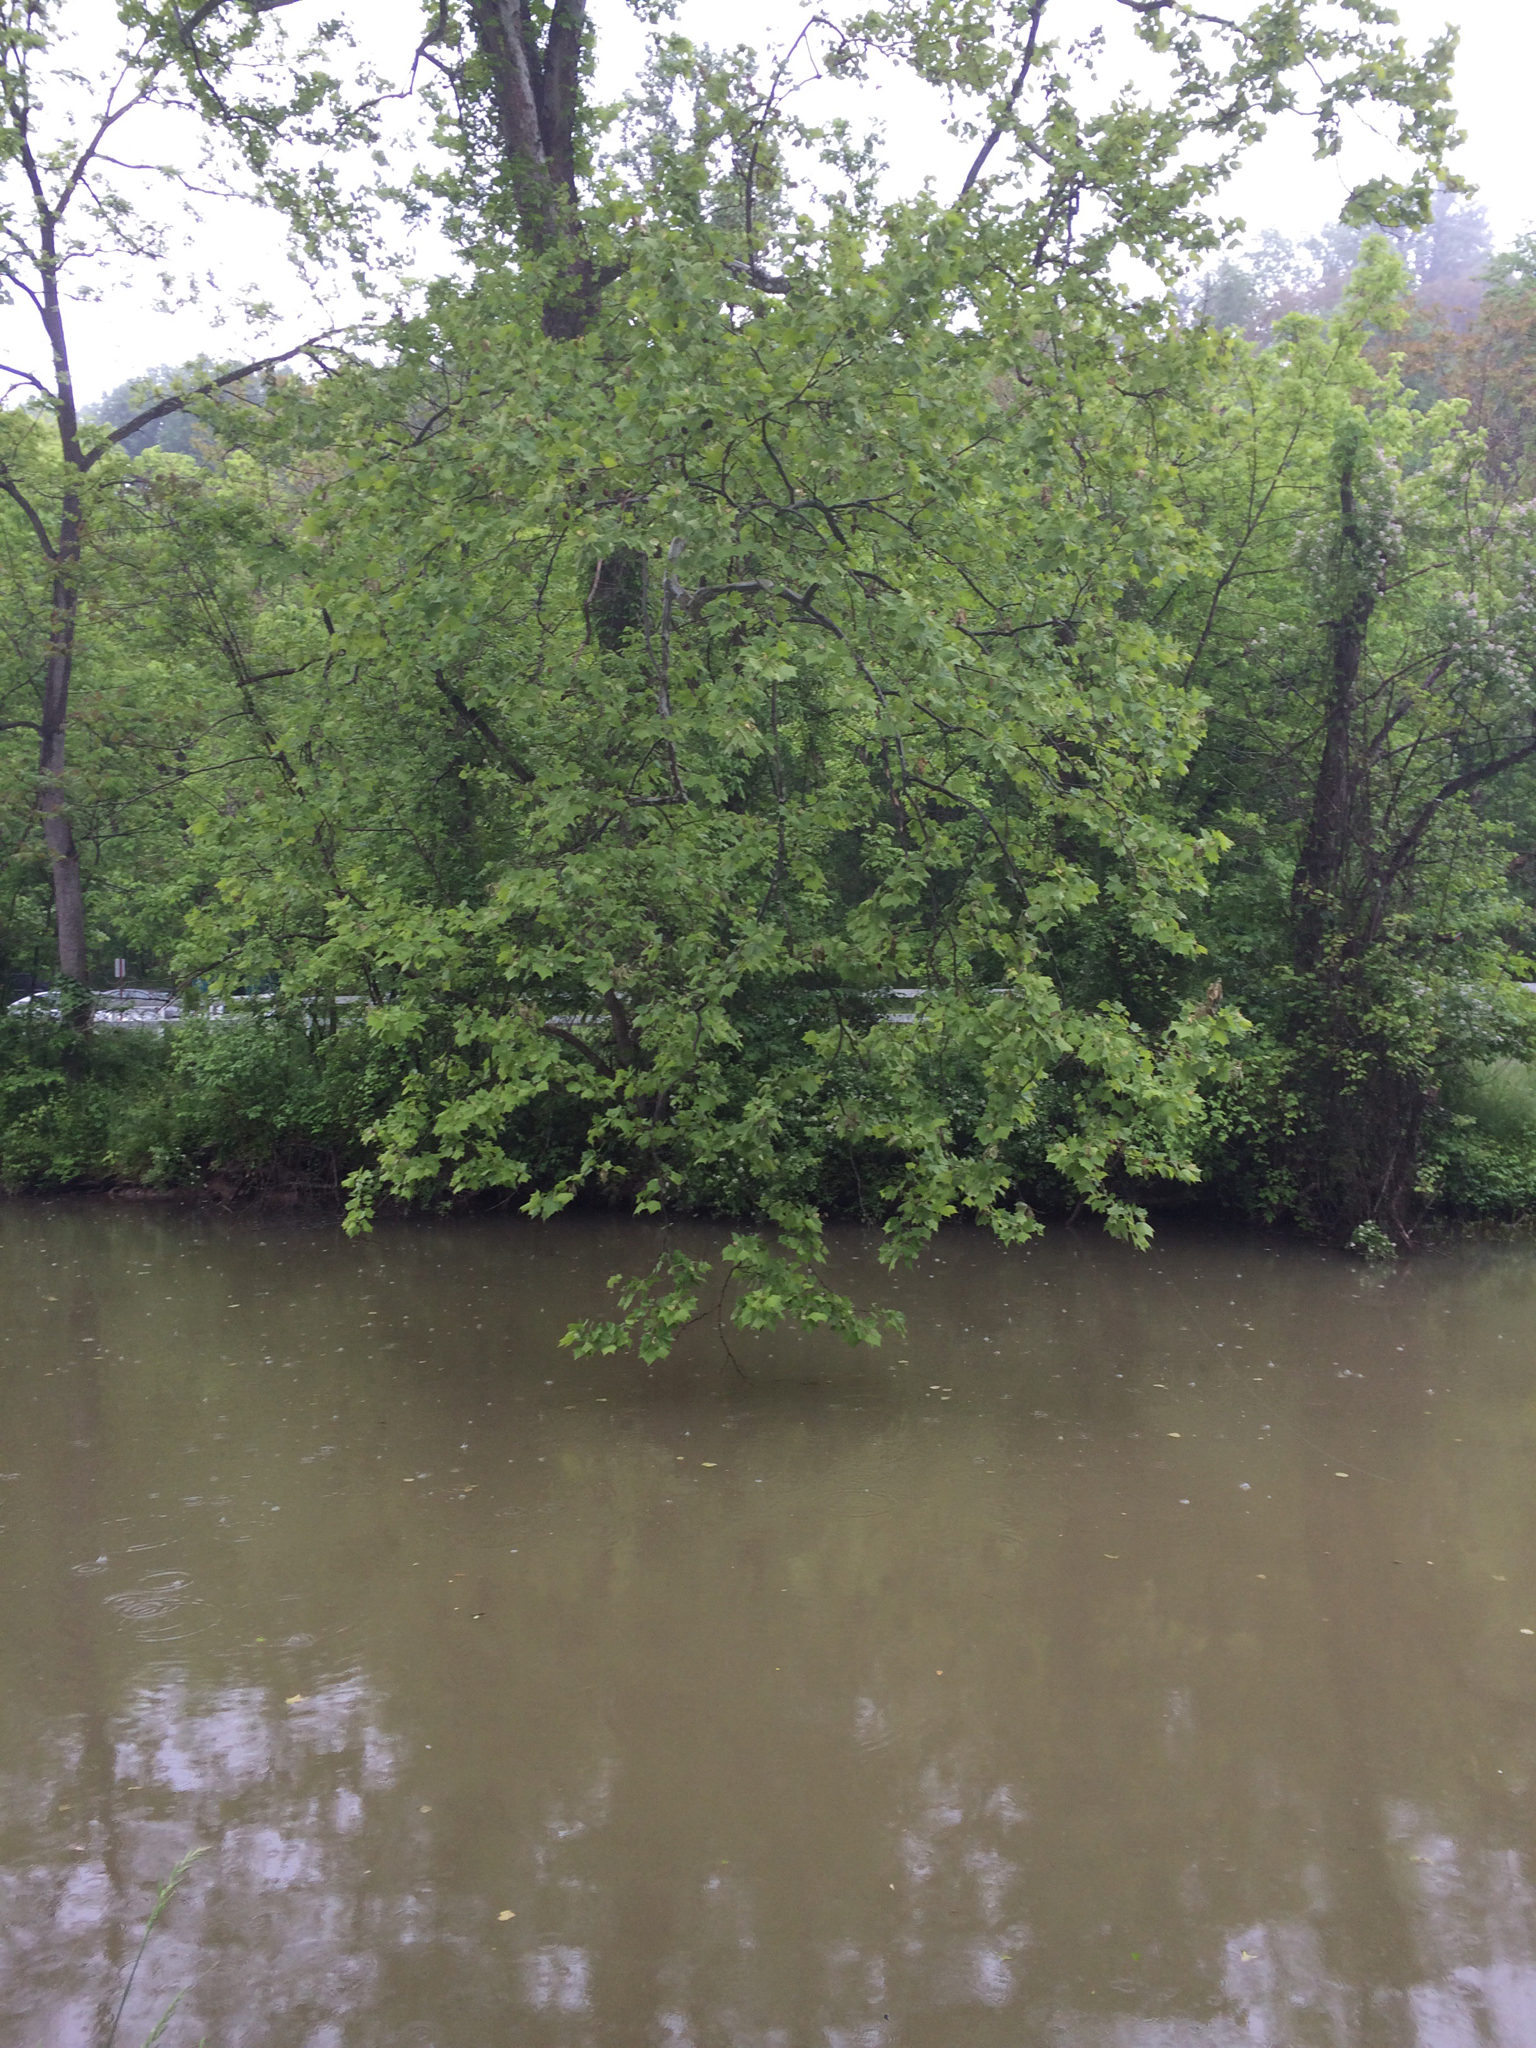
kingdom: Plantae
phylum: Tracheophyta
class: Magnoliopsida
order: Proteales
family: Platanaceae
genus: Platanus
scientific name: Platanus occidentalis
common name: American sycamore
